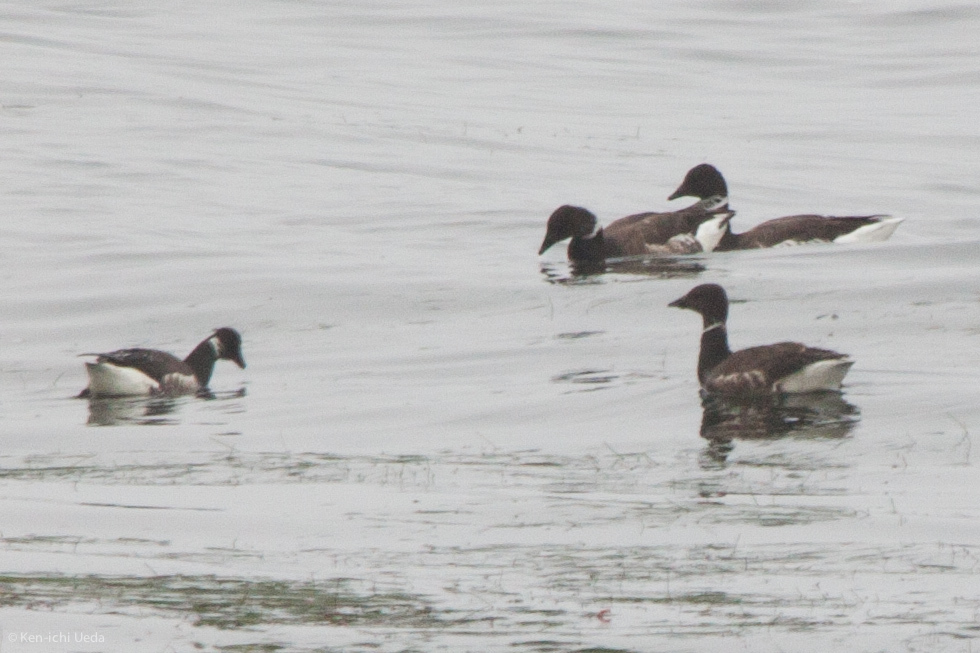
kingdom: Animalia
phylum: Chordata
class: Aves
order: Anseriformes
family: Anatidae
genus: Branta
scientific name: Branta bernicla
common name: Brant goose
